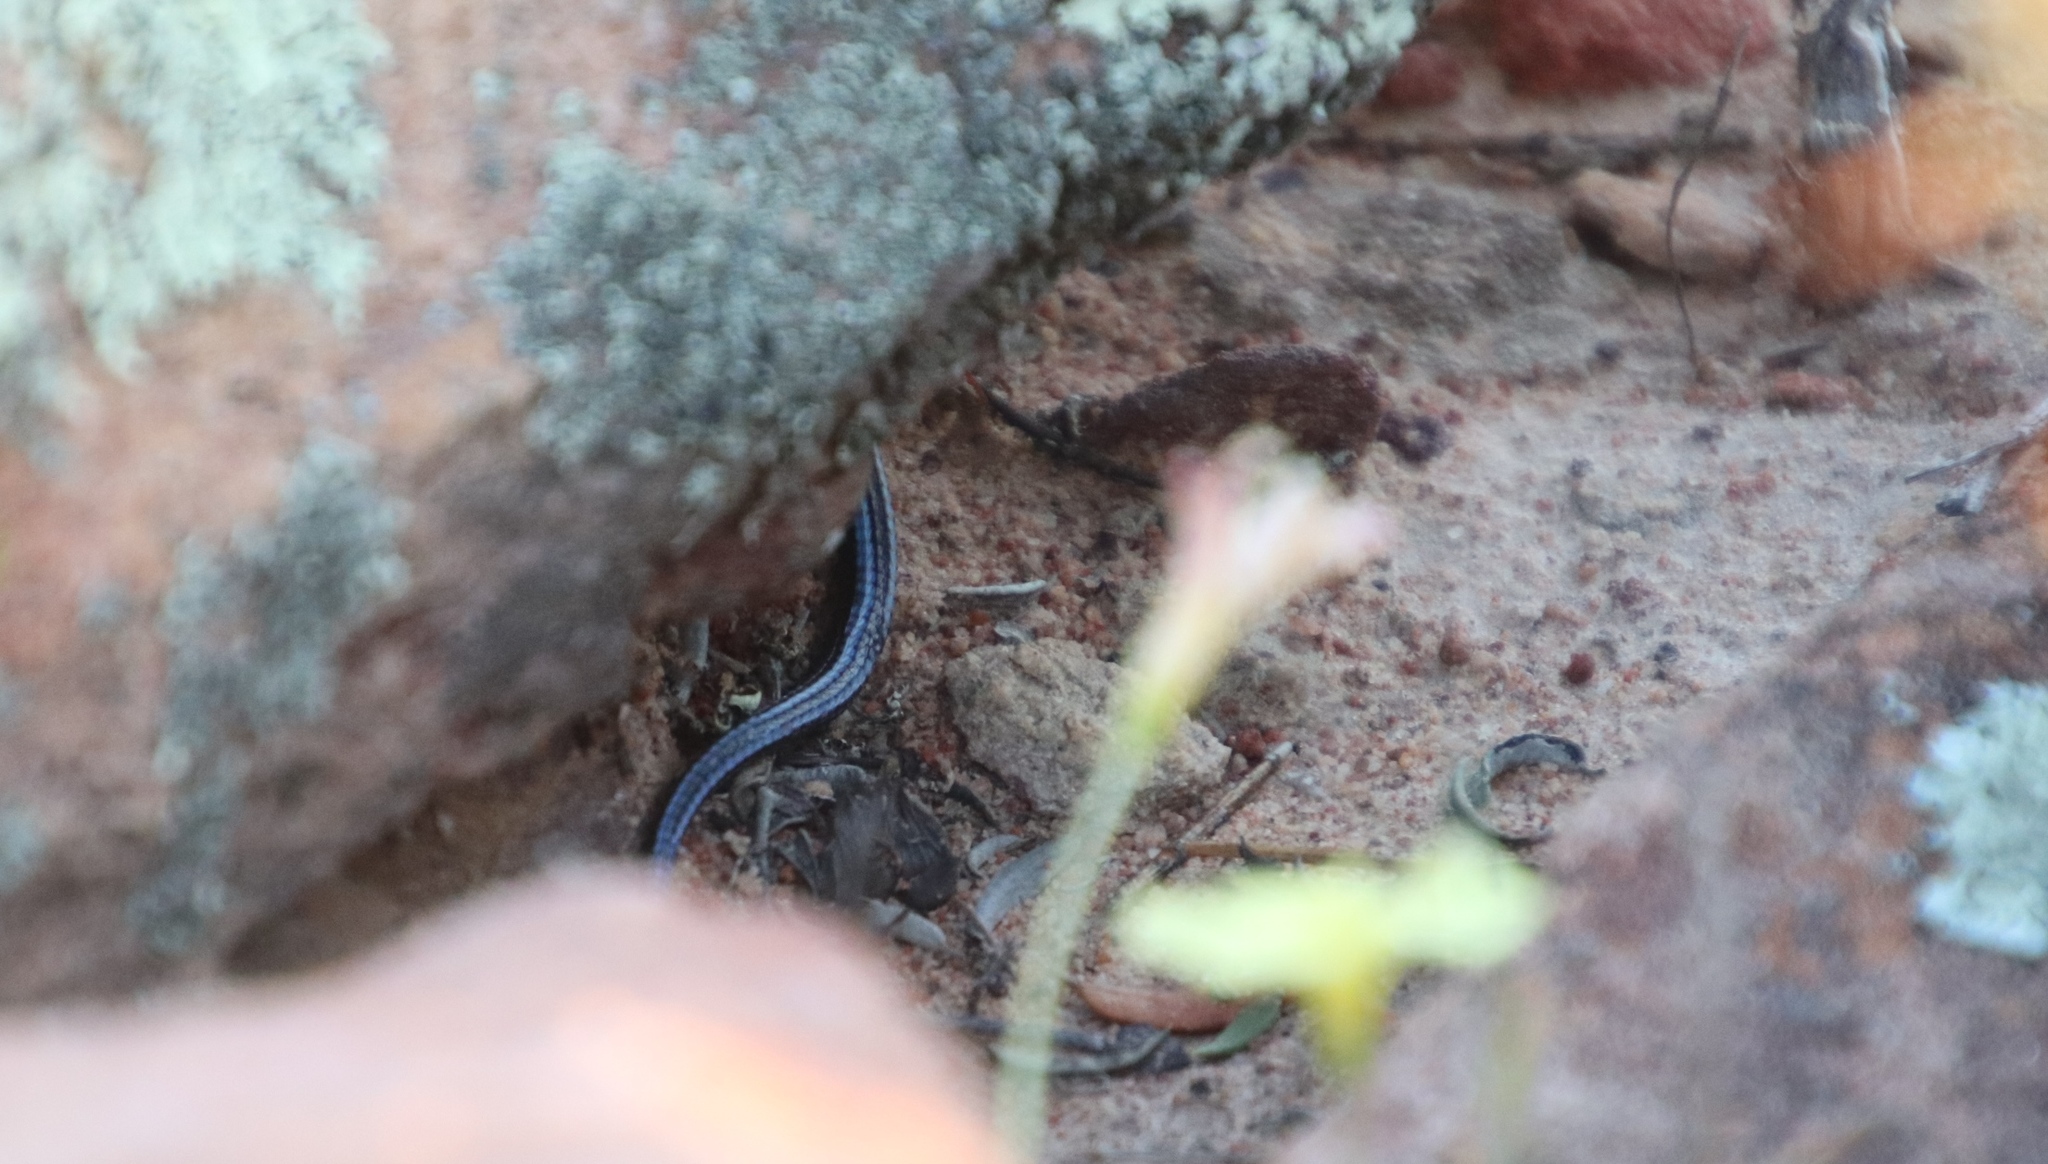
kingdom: Animalia
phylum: Chordata
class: Squamata
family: Gerrhosauridae
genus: Cordylosaurus
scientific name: Cordylosaurus subtessellatus
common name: Dwarf plated lizard
